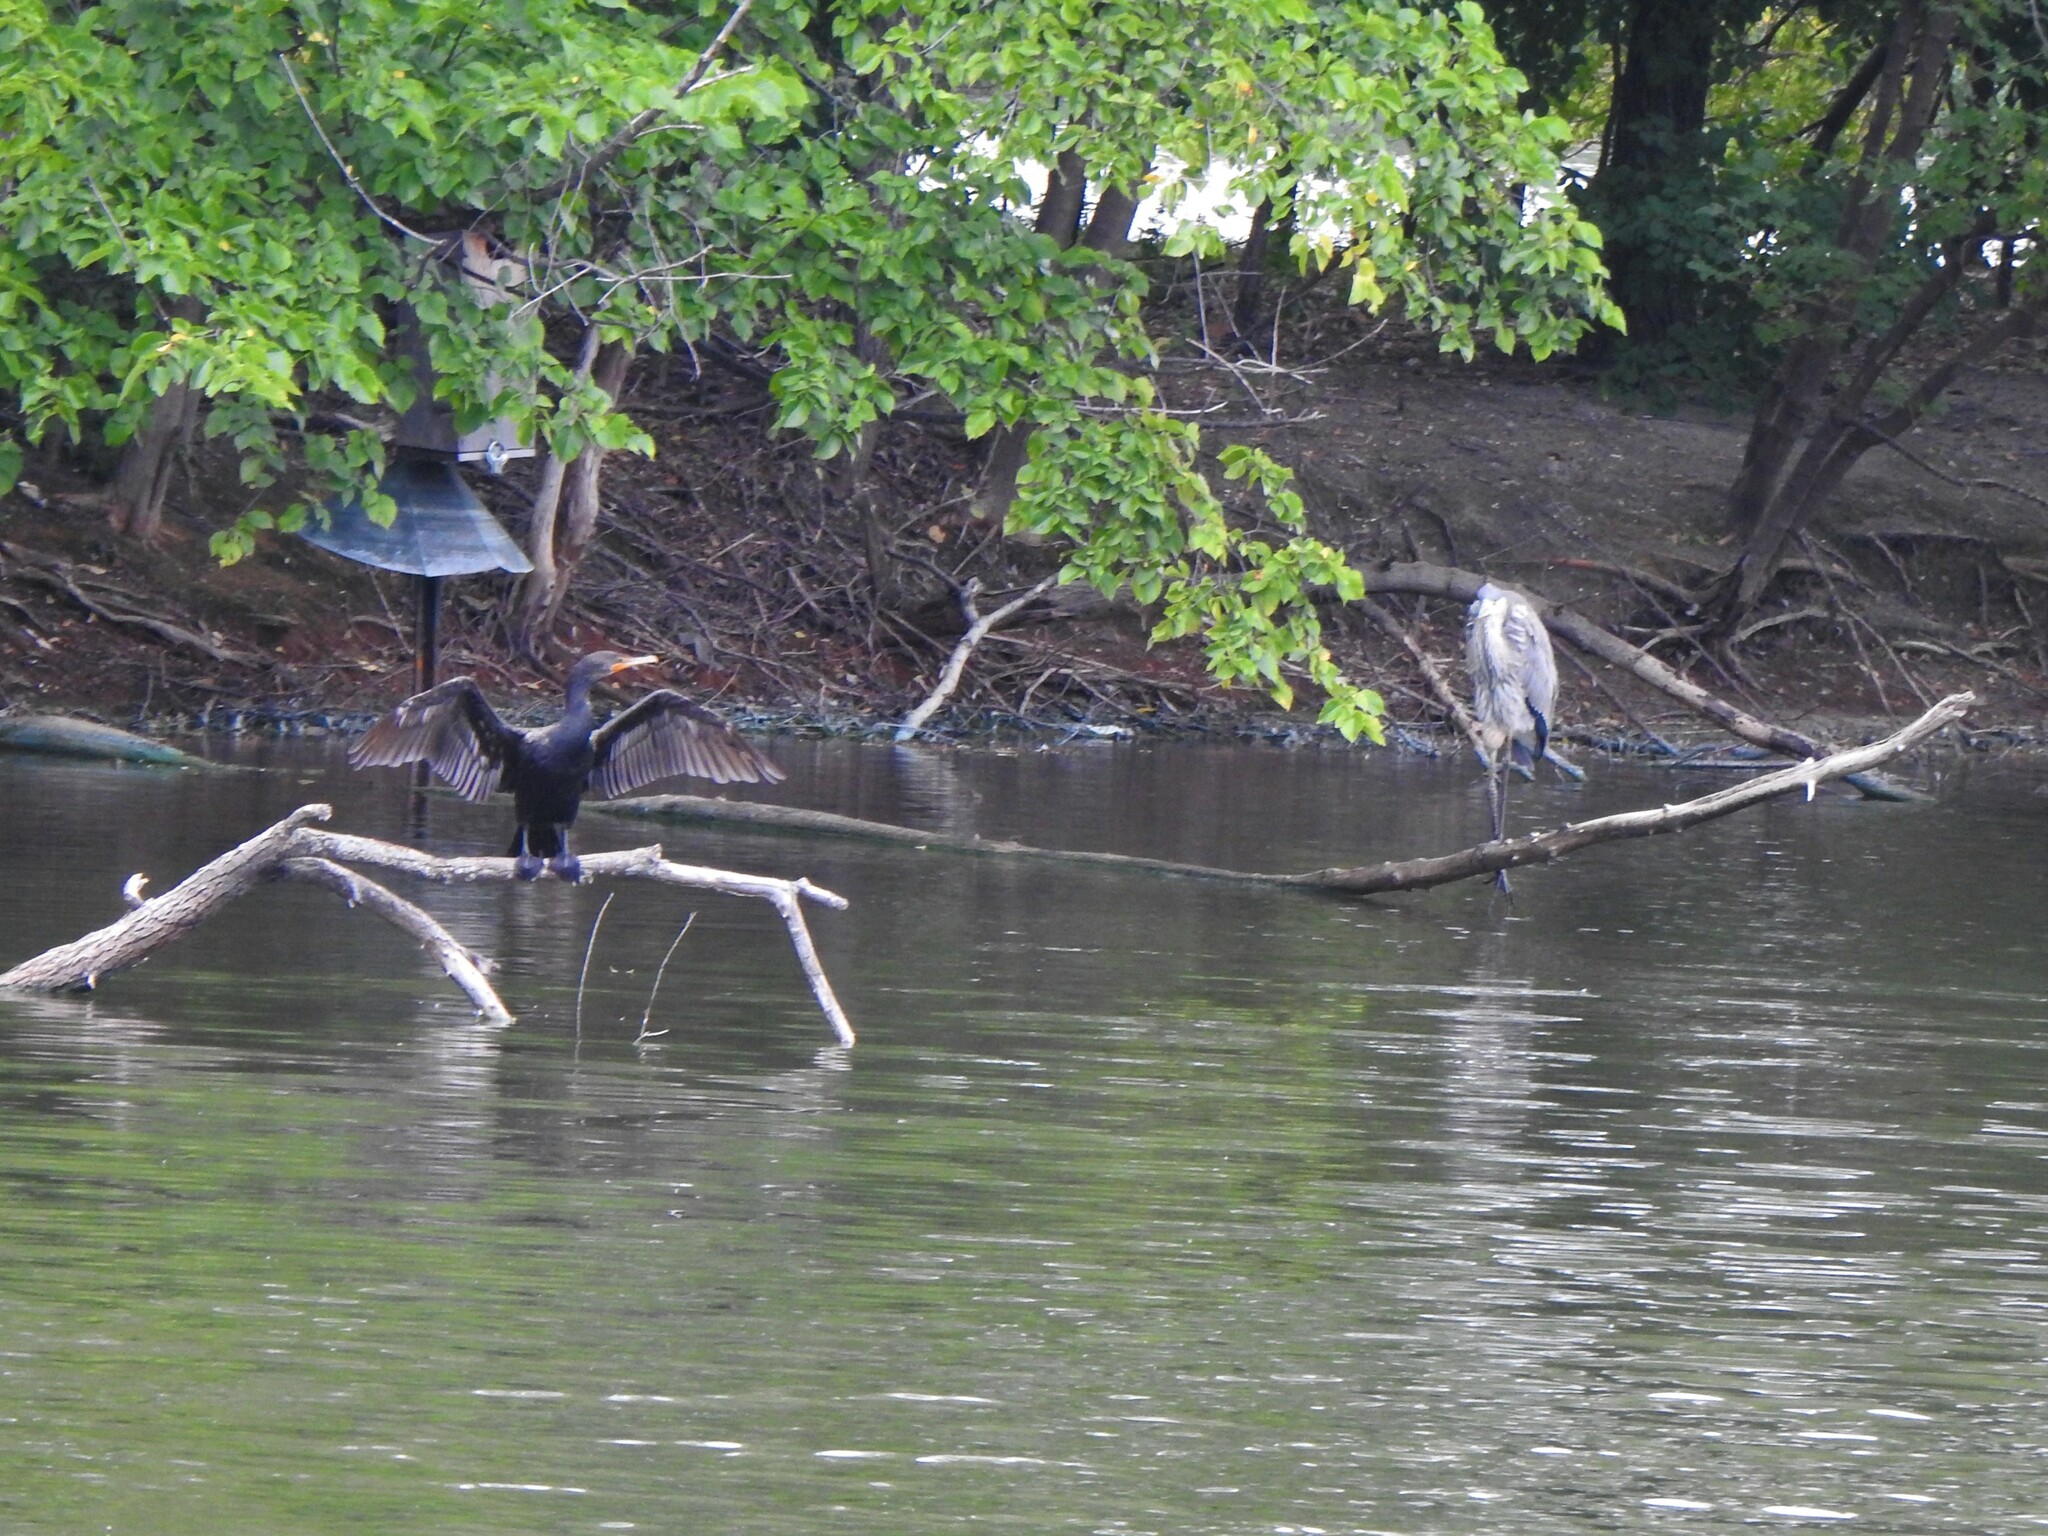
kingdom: Animalia
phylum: Chordata
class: Aves
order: Suliformes
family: Phalacrocoracidae
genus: Phalacrocorax
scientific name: Phalacrocorax auritus
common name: Double-crested cormorant
